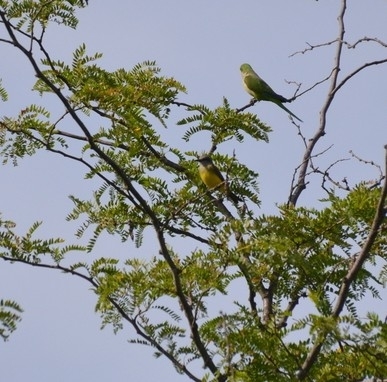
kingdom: Animalia
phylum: Chordata
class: Aves
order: Passeriformes
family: Tyrannidae
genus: Tyrannus
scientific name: Tyrannus melancholicus
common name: Tropical kingbird
